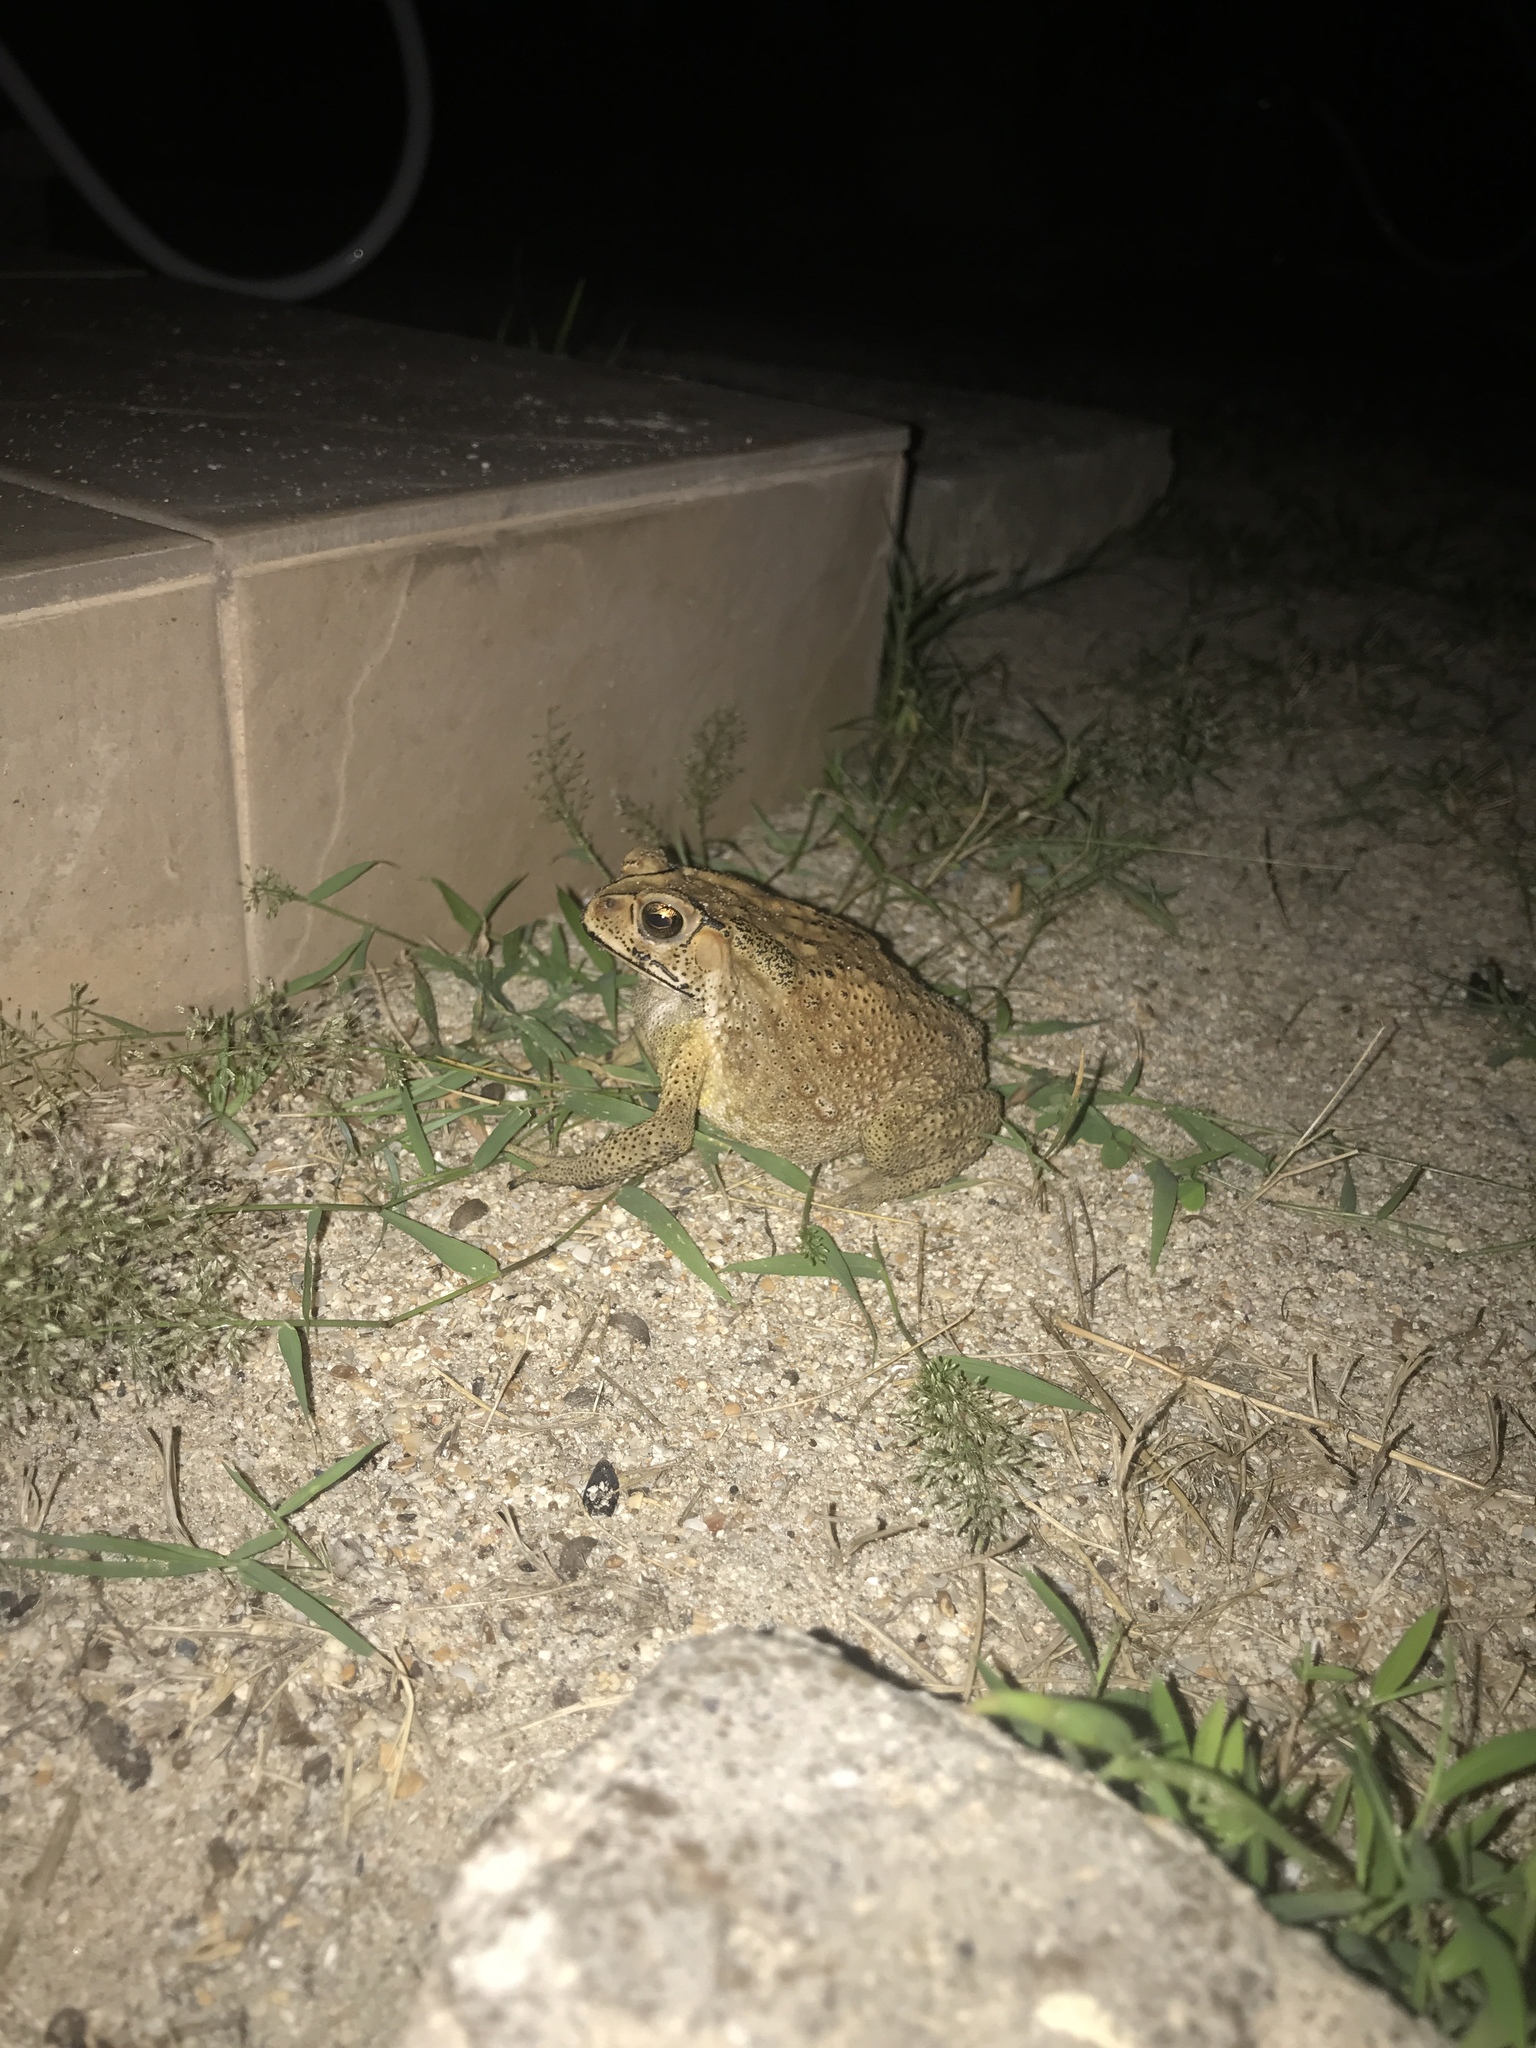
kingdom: Animalia
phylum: Chordata
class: Amphibia
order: Anura
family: Bufonidae
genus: Duttaphrynus
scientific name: Duttaphrynus melanostictus
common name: Common sunda toad
